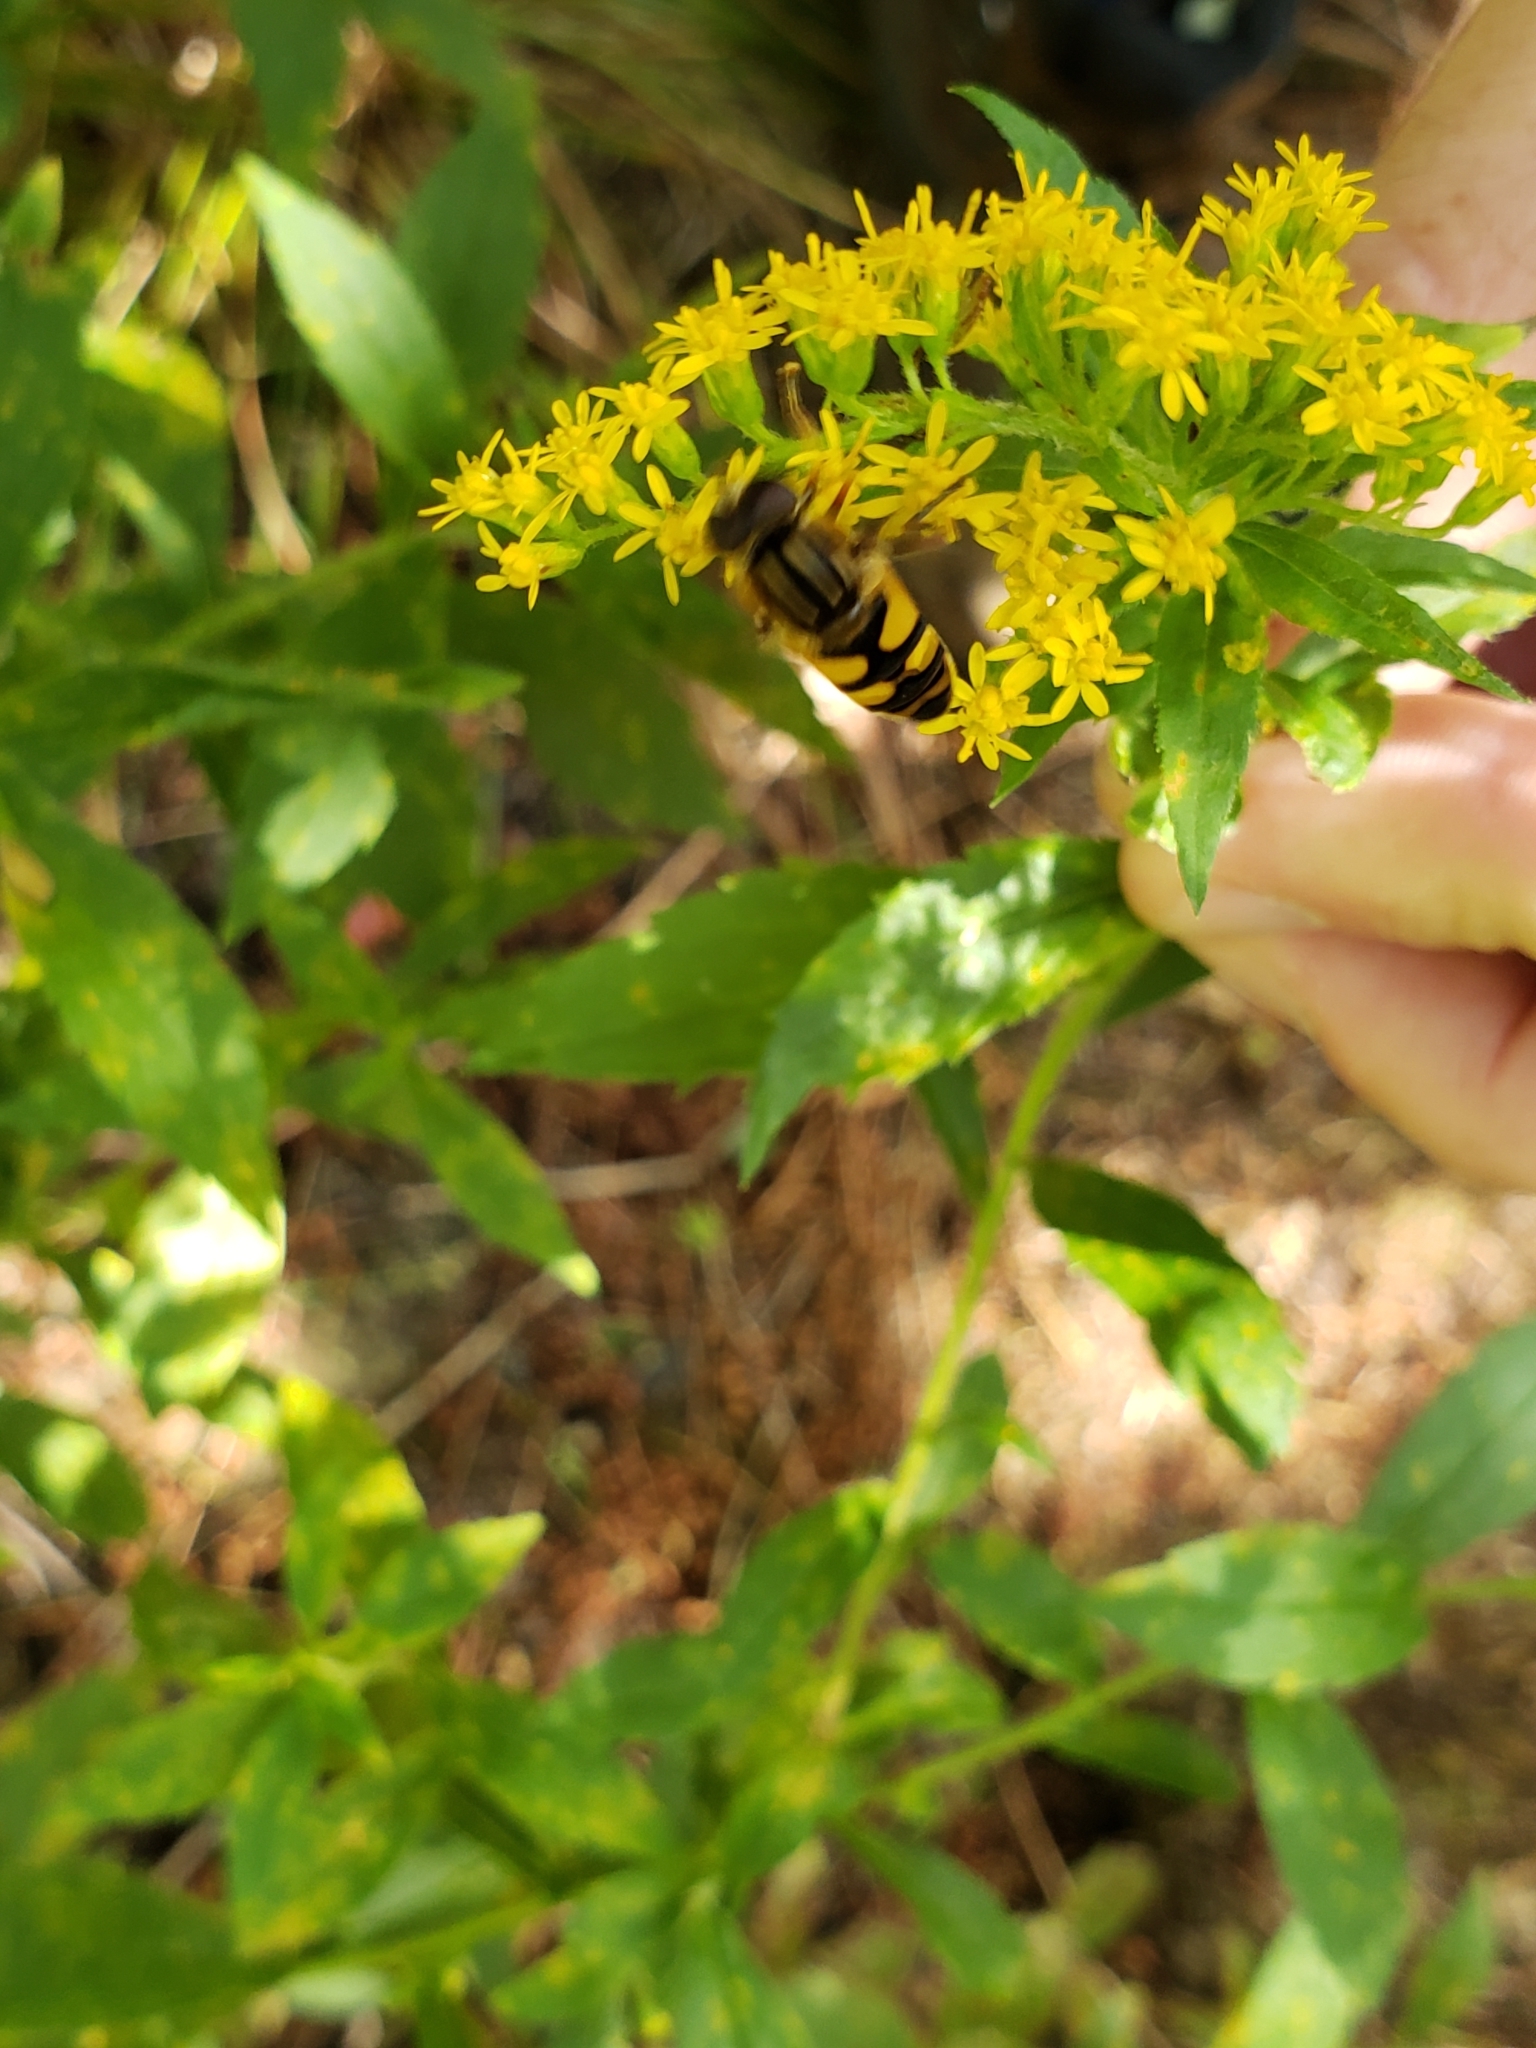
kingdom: Animalia
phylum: Arthropoda
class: Insecta
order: Diptera
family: Syrphidae
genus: Helophilus
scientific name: Helophilus fasciatus
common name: Narrow-headed marsh fly
